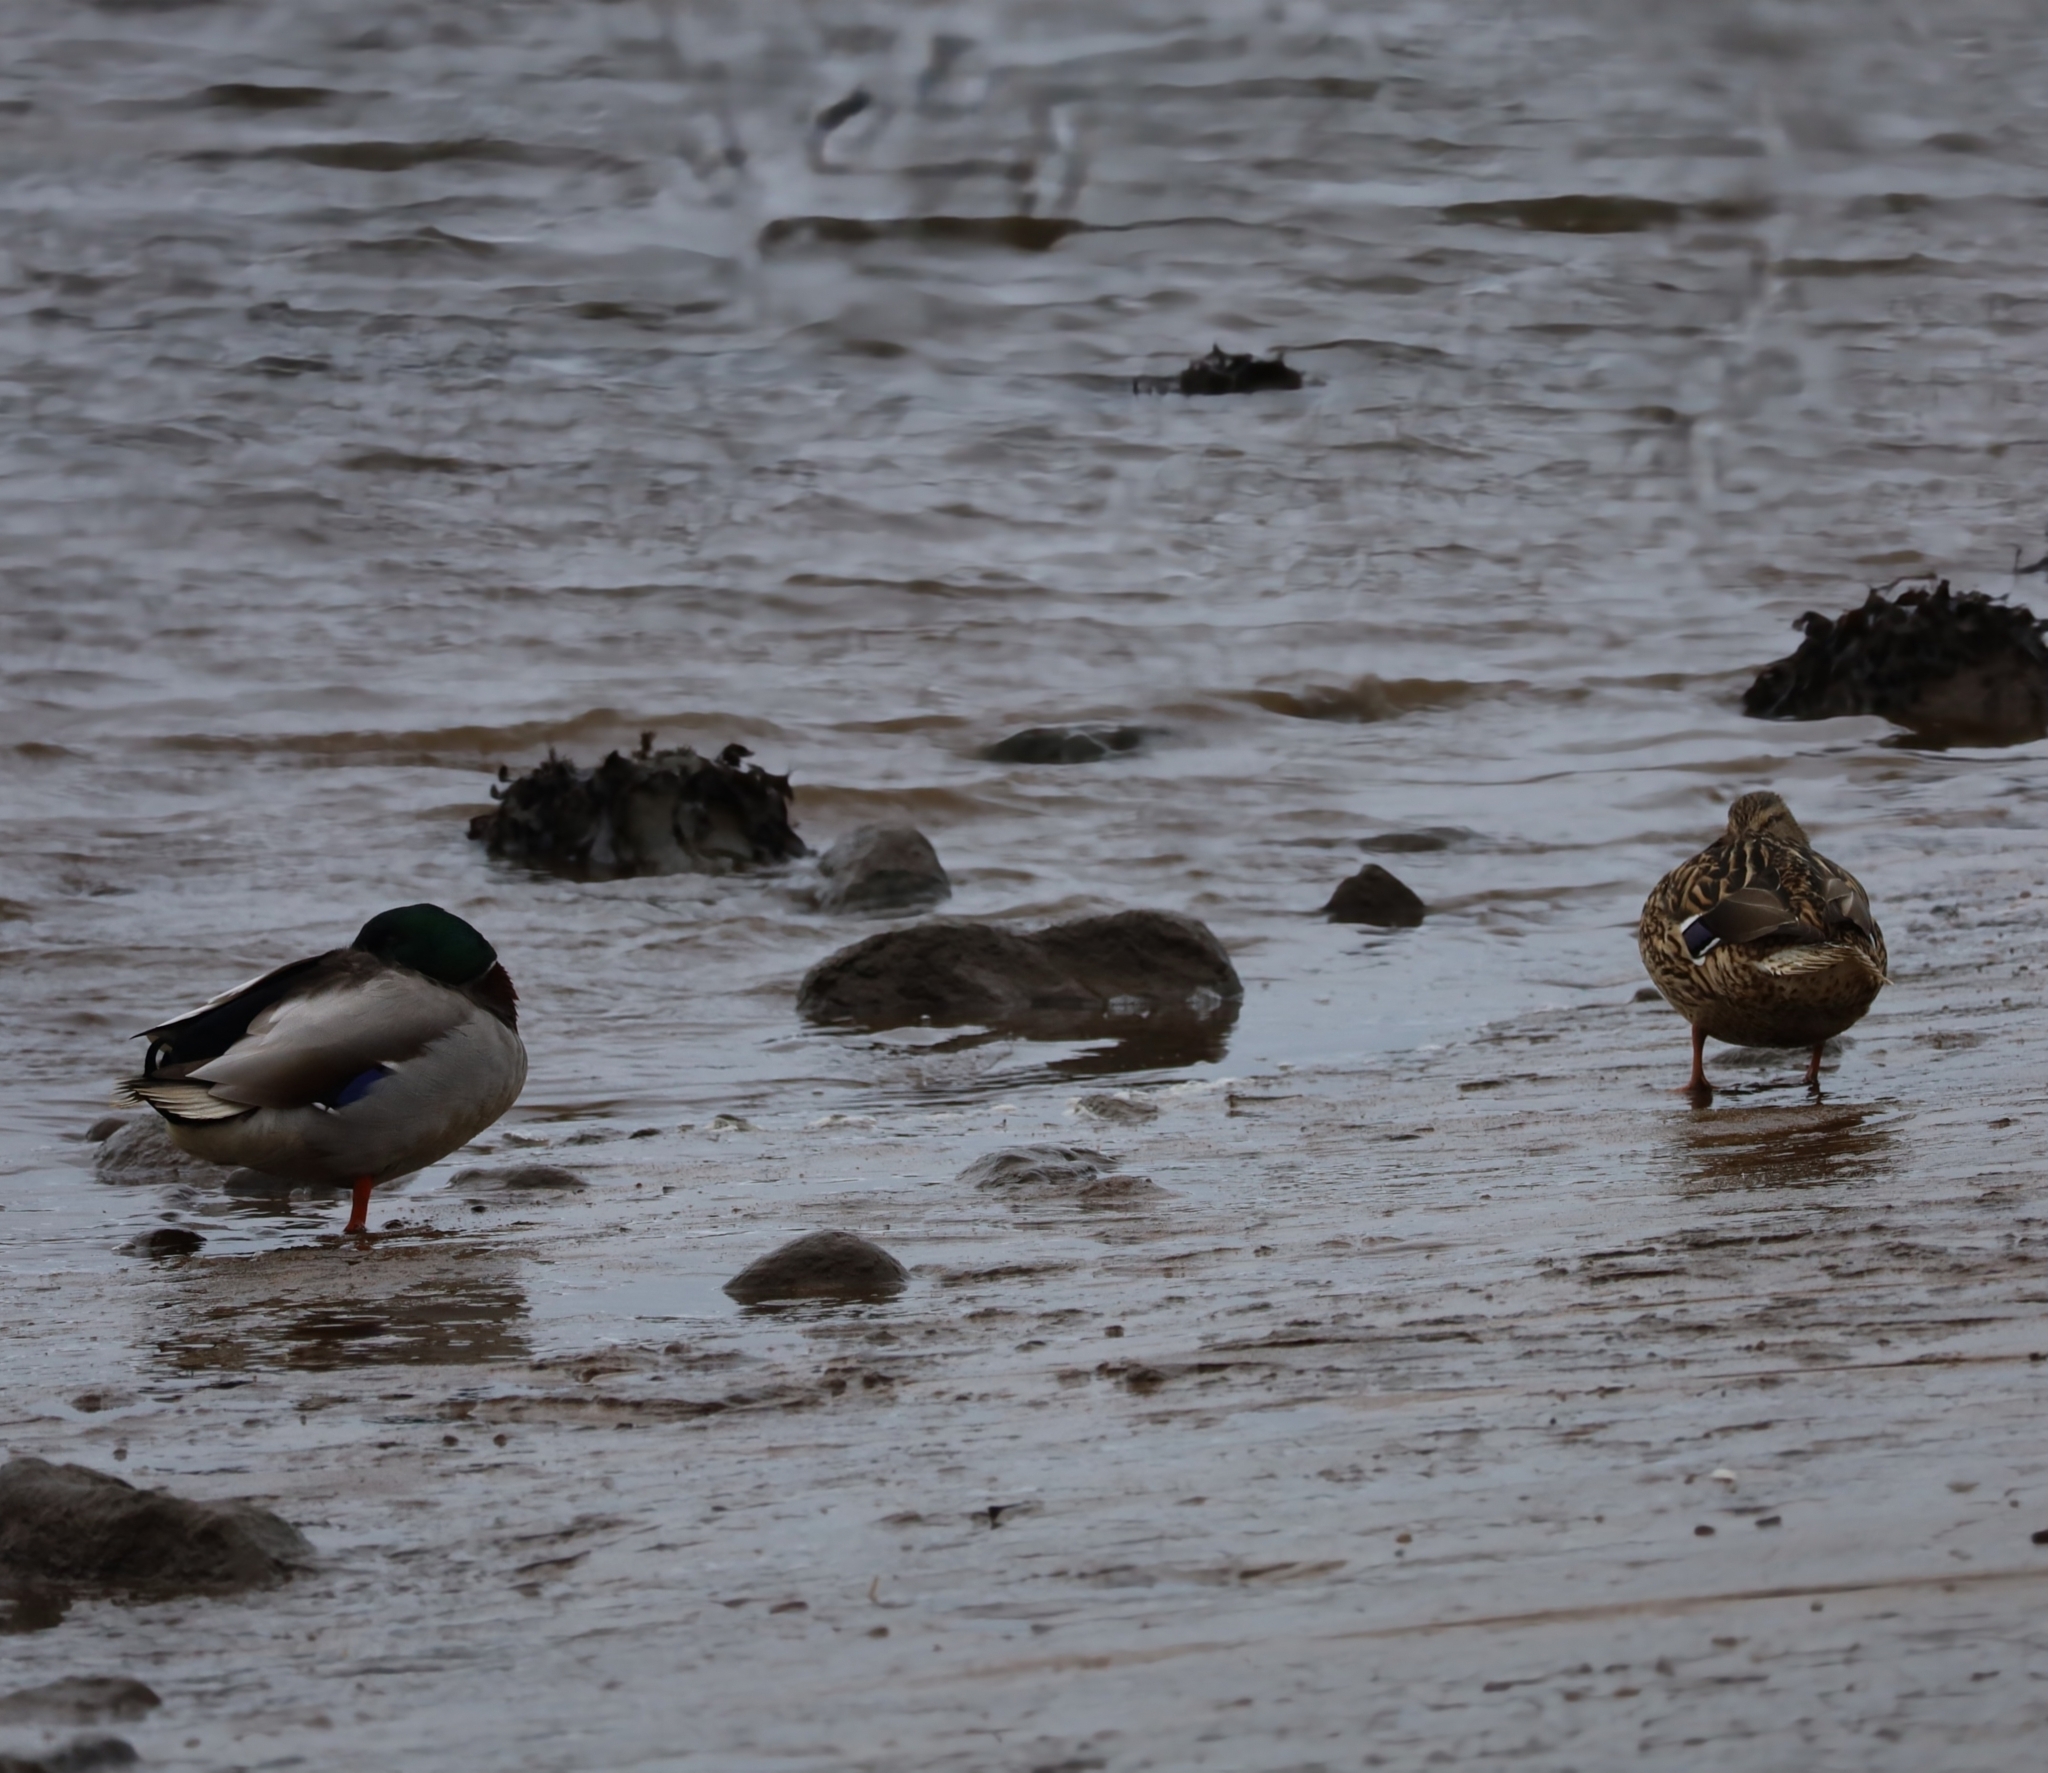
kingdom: Animalia
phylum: Chordata
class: Aves
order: Anseriformes
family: Anatidae
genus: Anas
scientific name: Anas platyrhynchos
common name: Mallard
